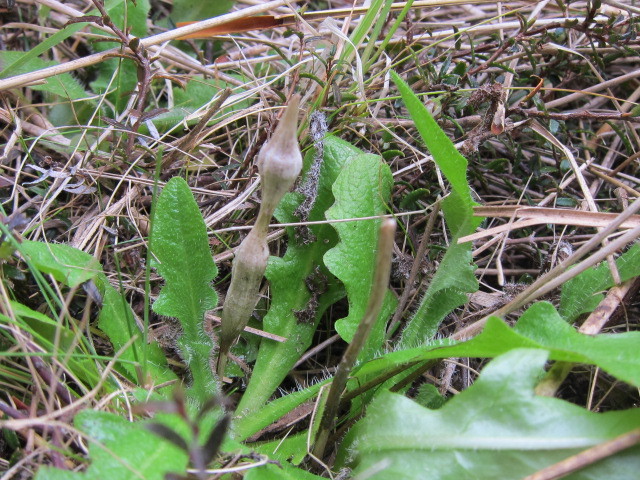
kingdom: Plantae
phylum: Tracheophyta
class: Magnoliopsida
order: Asterales
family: Asteraceae
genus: Hypochaeris
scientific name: Hypochaeris radicata
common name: Flatweed
